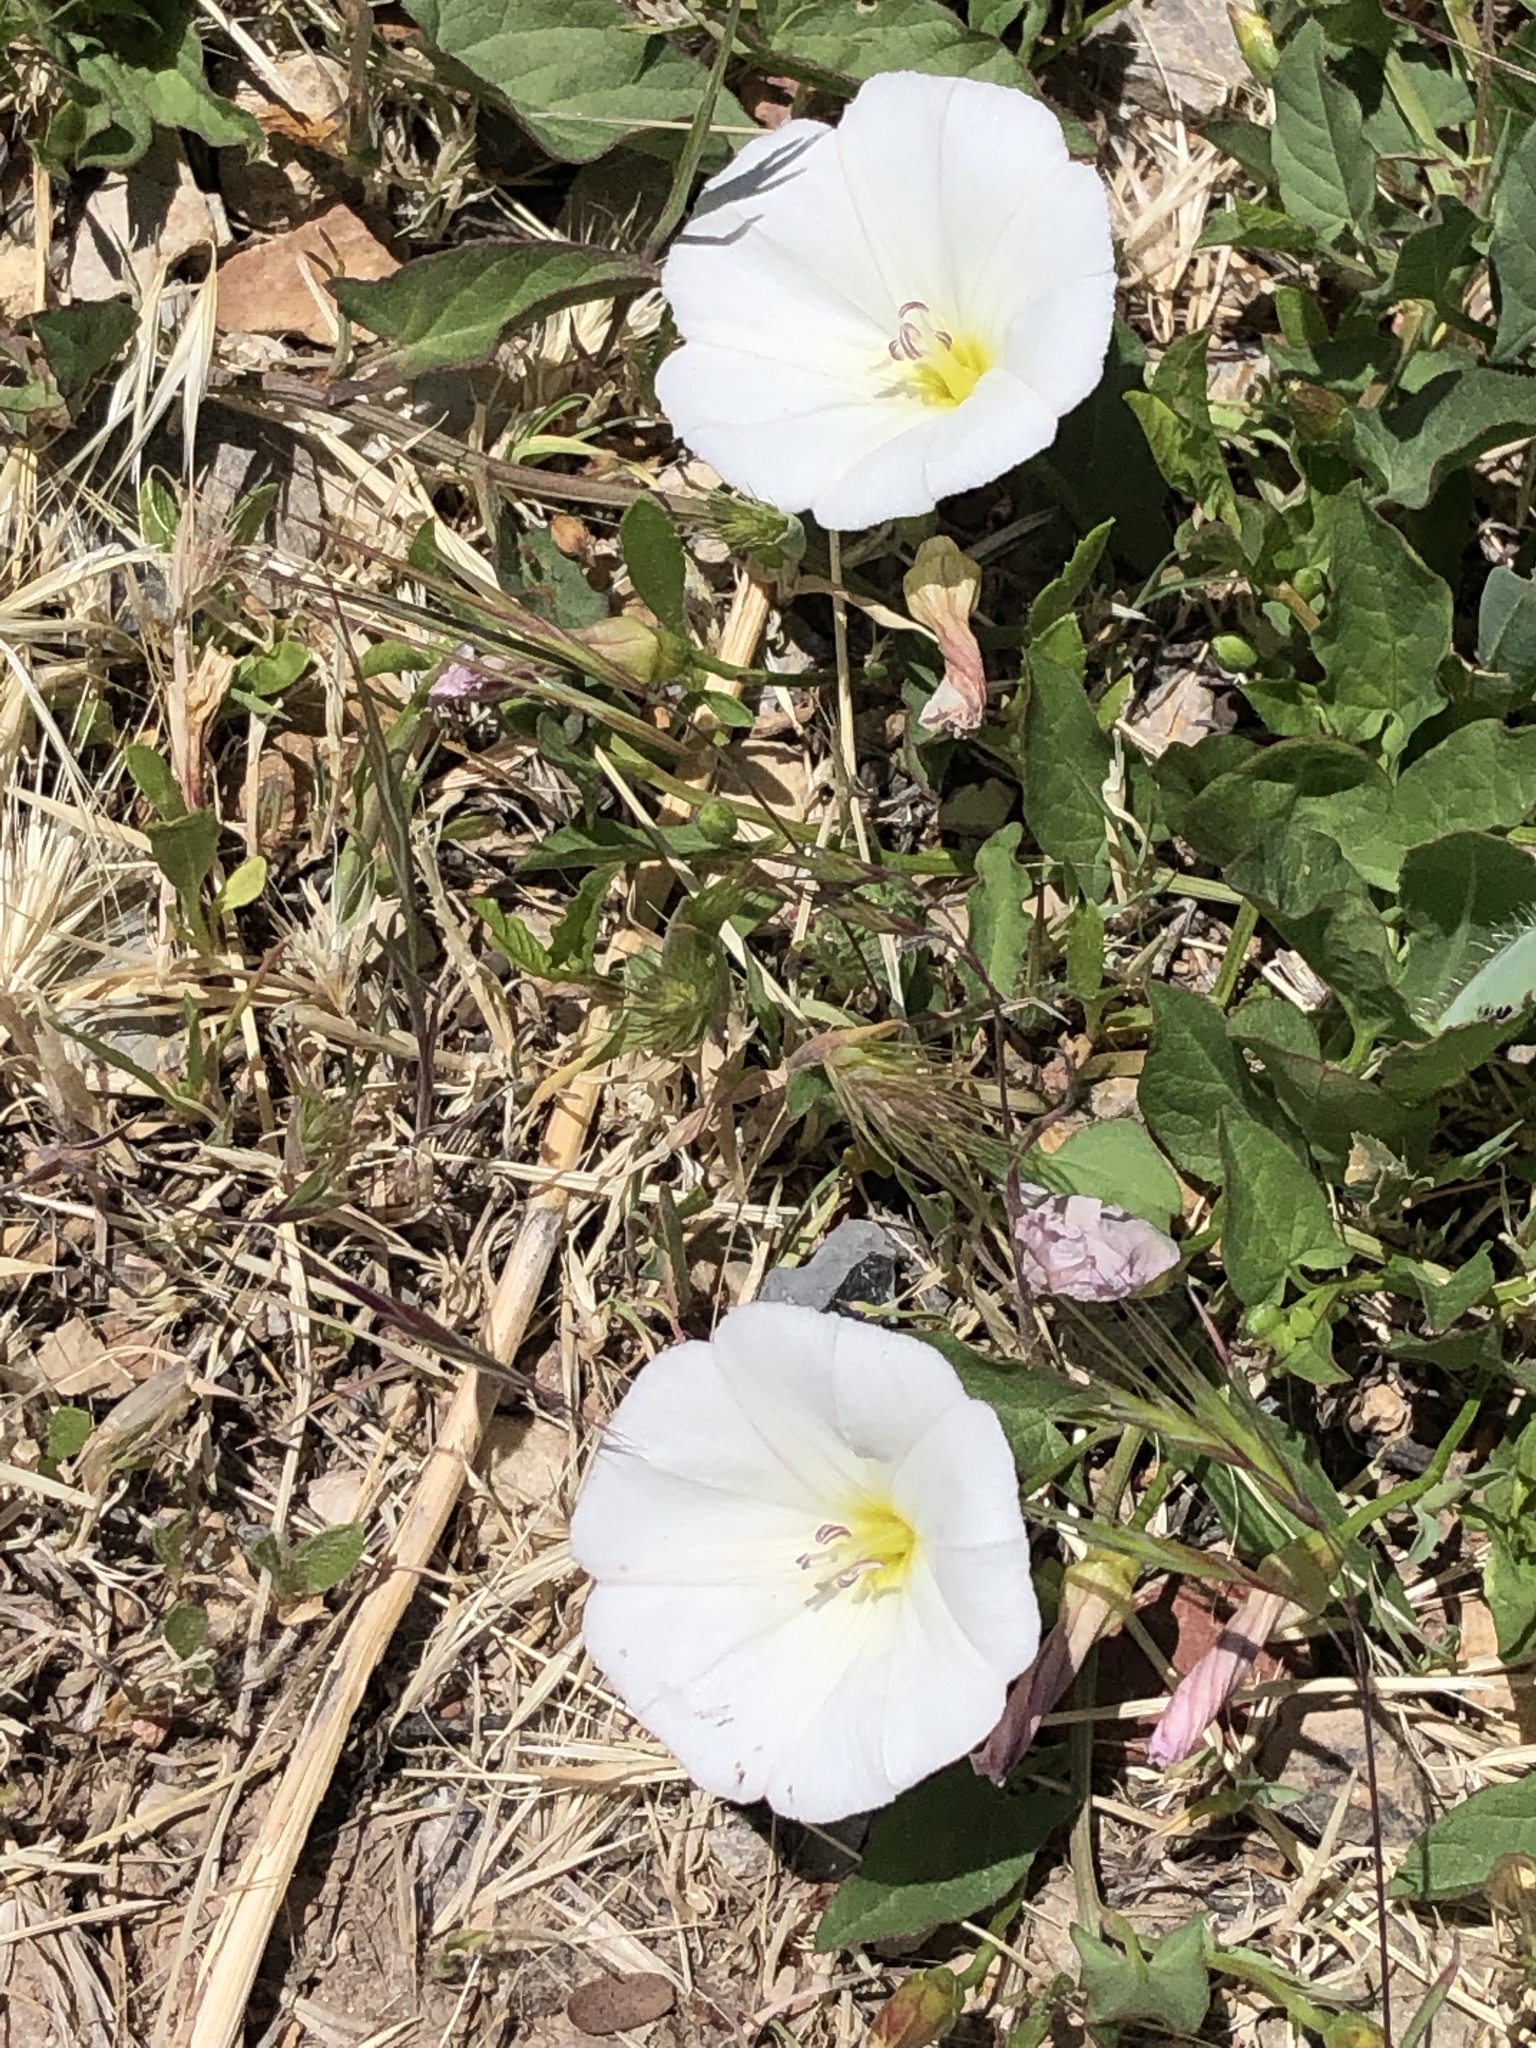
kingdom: Plantae
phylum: Tracheophyta
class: Magnoliopsida
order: Solanales
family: Convolvulaceae
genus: Convolvulus
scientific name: Convolvulus arvensis
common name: Field bindweed
